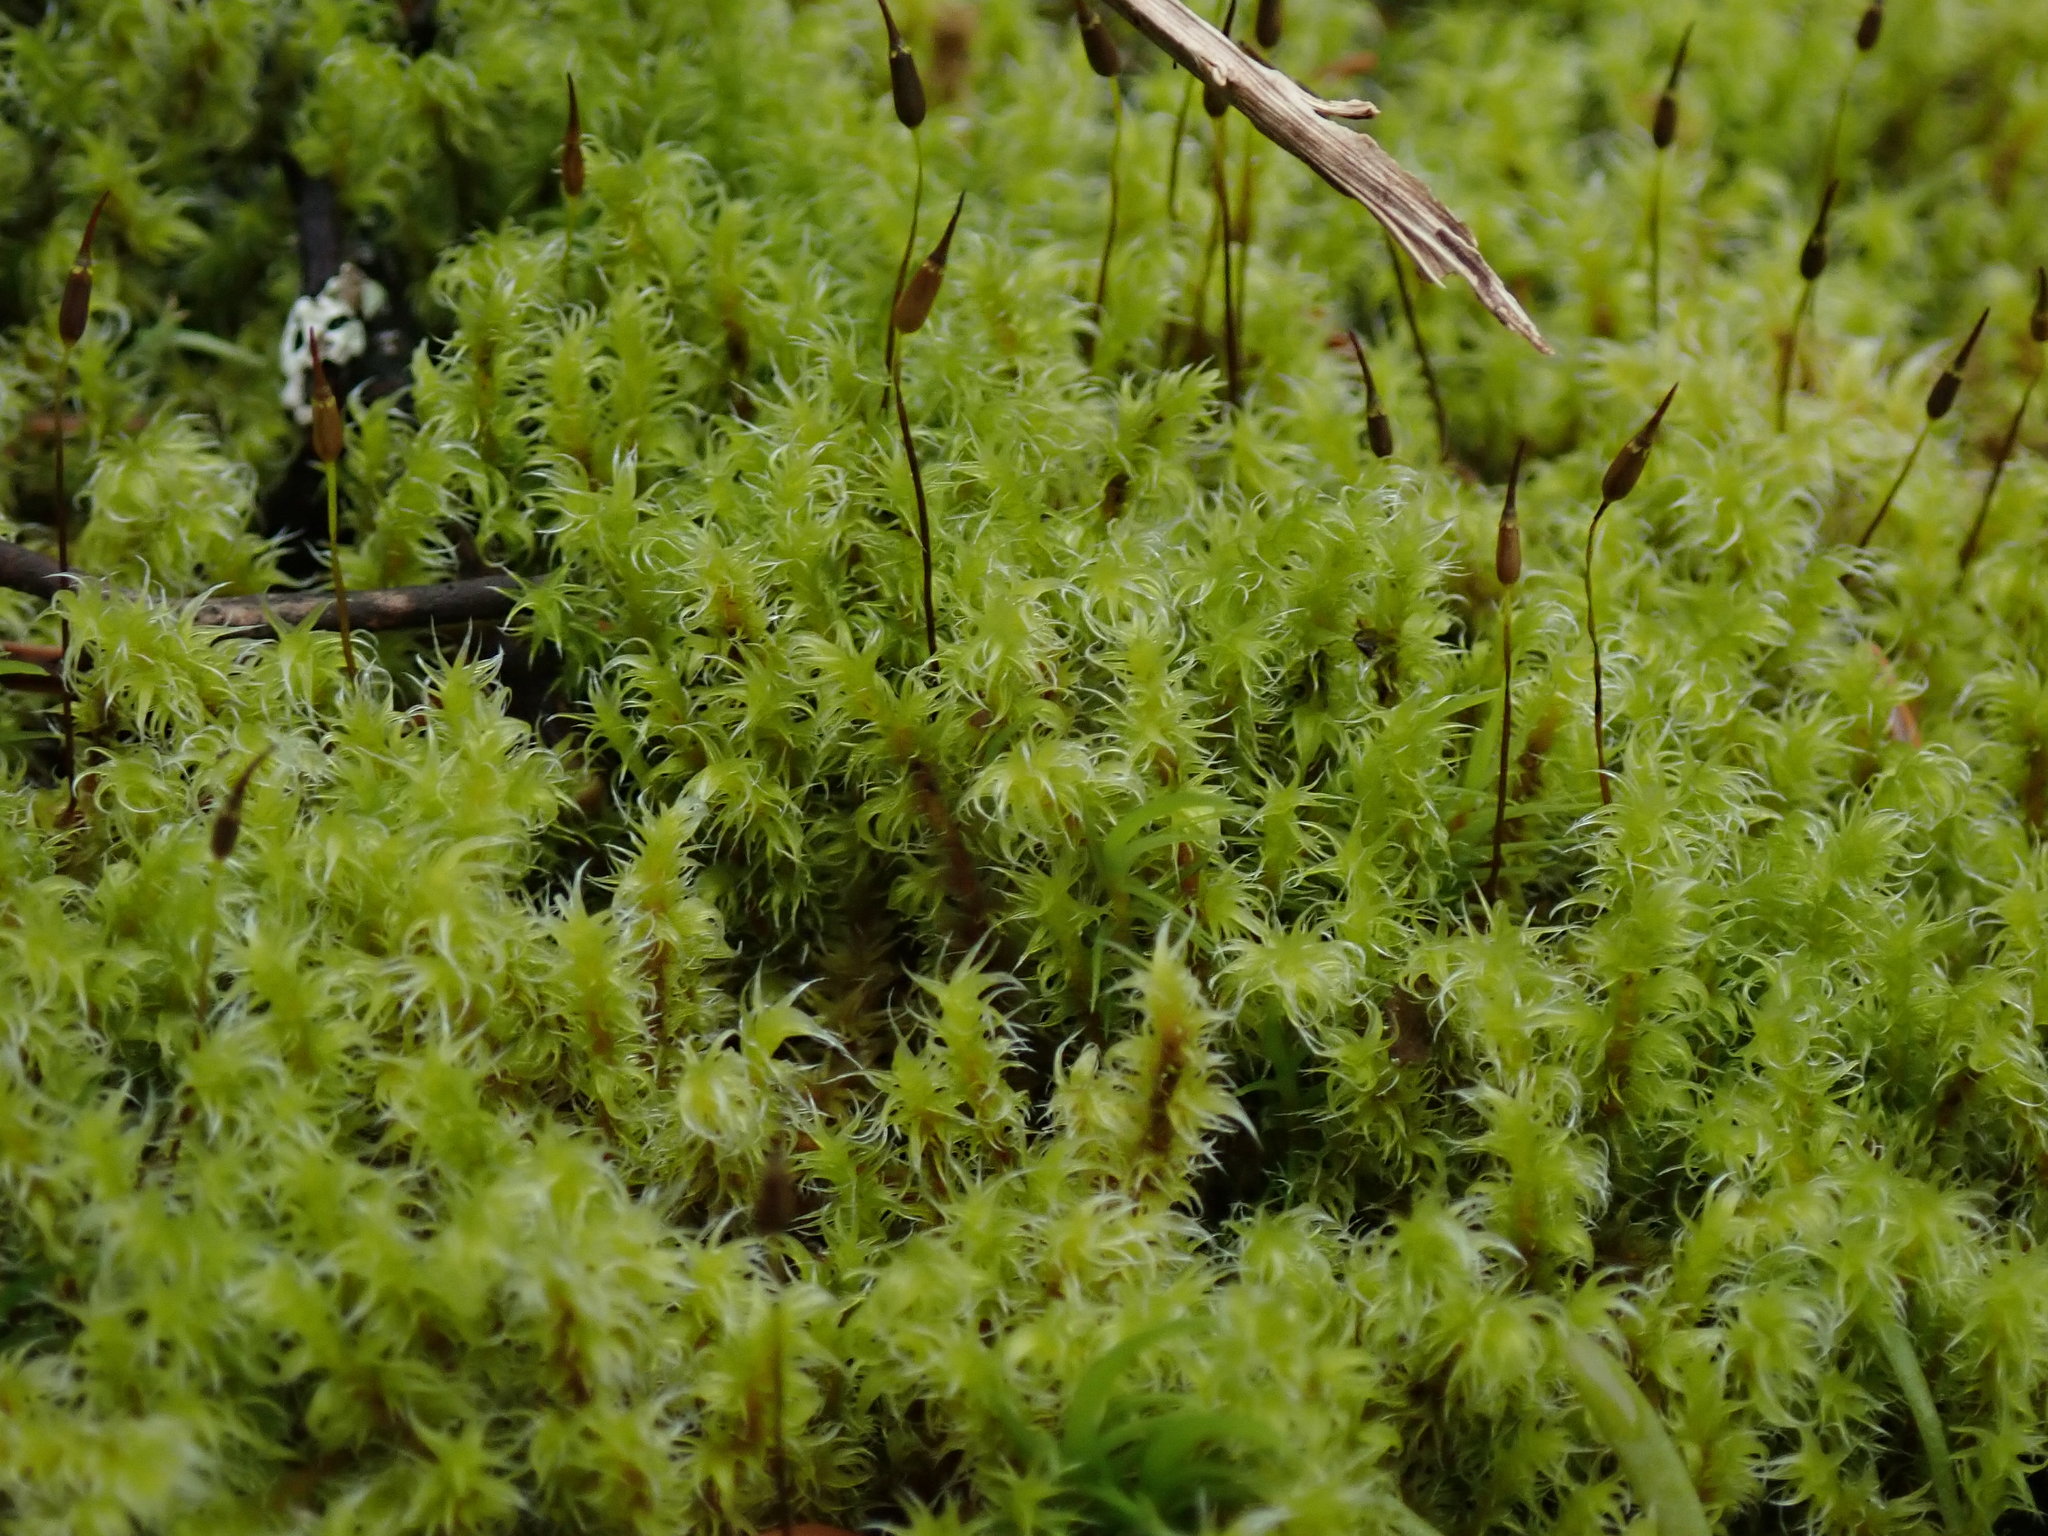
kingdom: Plantae
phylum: Bryophyta
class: Bryopsida
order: Grimmiales
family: Grimmiaceae
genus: Niphotrichum
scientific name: Niphotrichum elongatum
